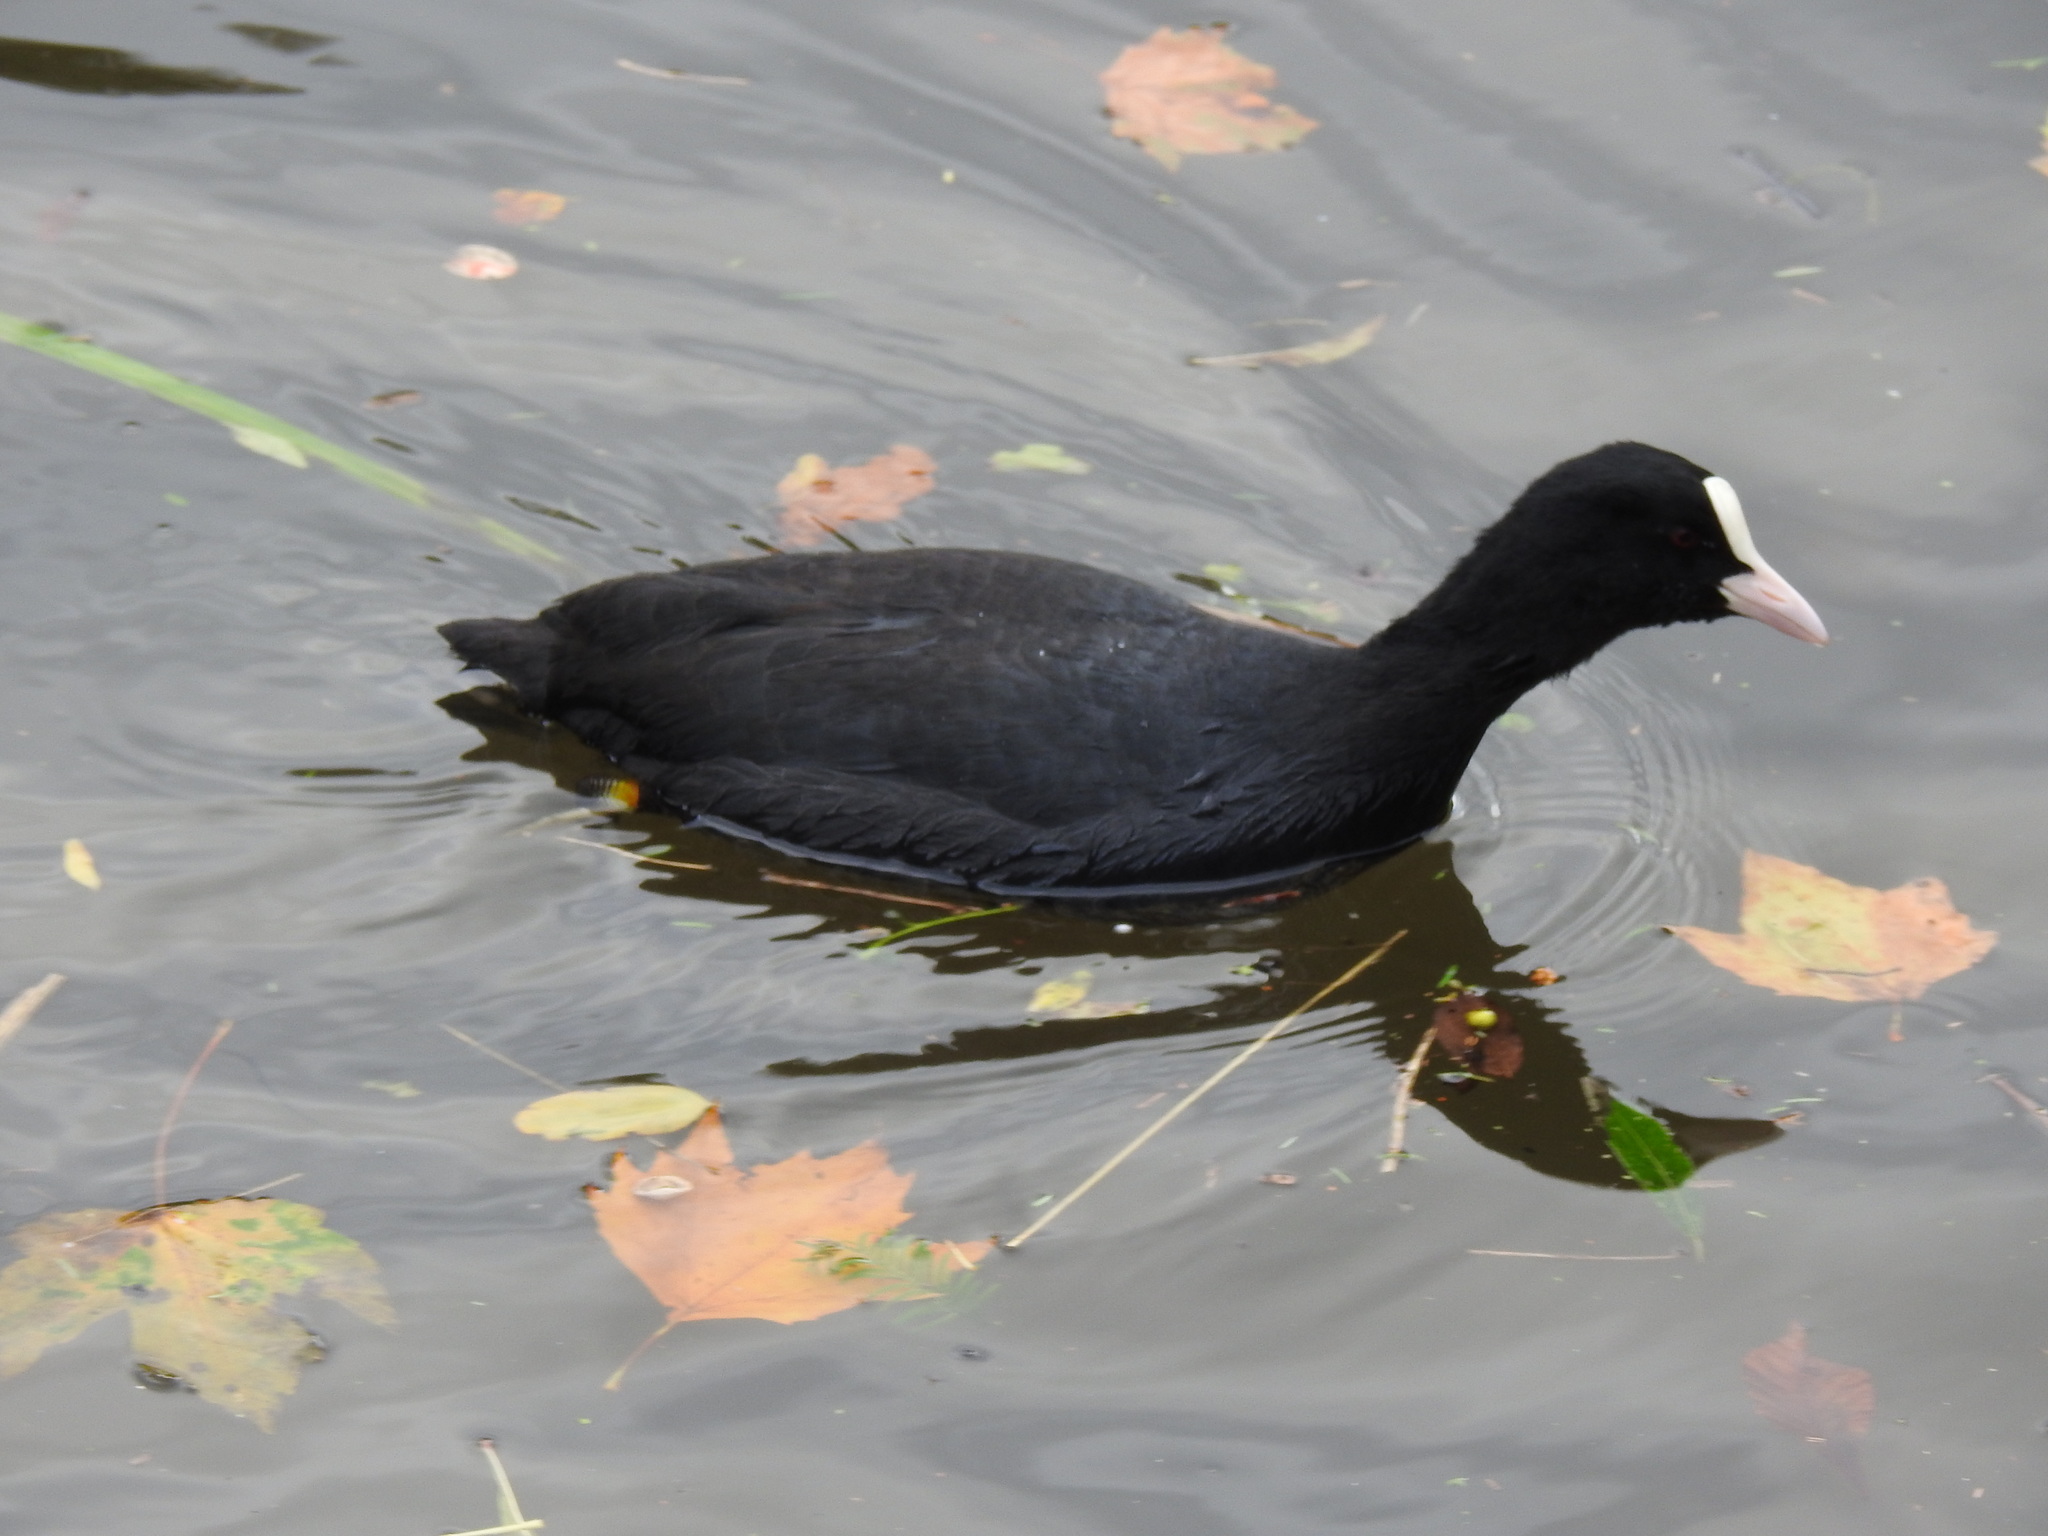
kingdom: Animalia
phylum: Chordata
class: Aves
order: Gruiformes
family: Rallidae
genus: Fulica
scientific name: Fulica atra
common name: Eurasian coot
